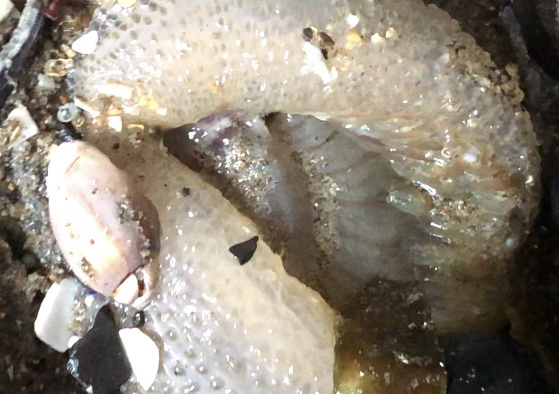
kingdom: Animalia
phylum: Cnidaria
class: Anthozoa
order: Actiniaria
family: Actiniidae
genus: Anthopleura
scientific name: Anthopleura sola
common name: Sun anemone
